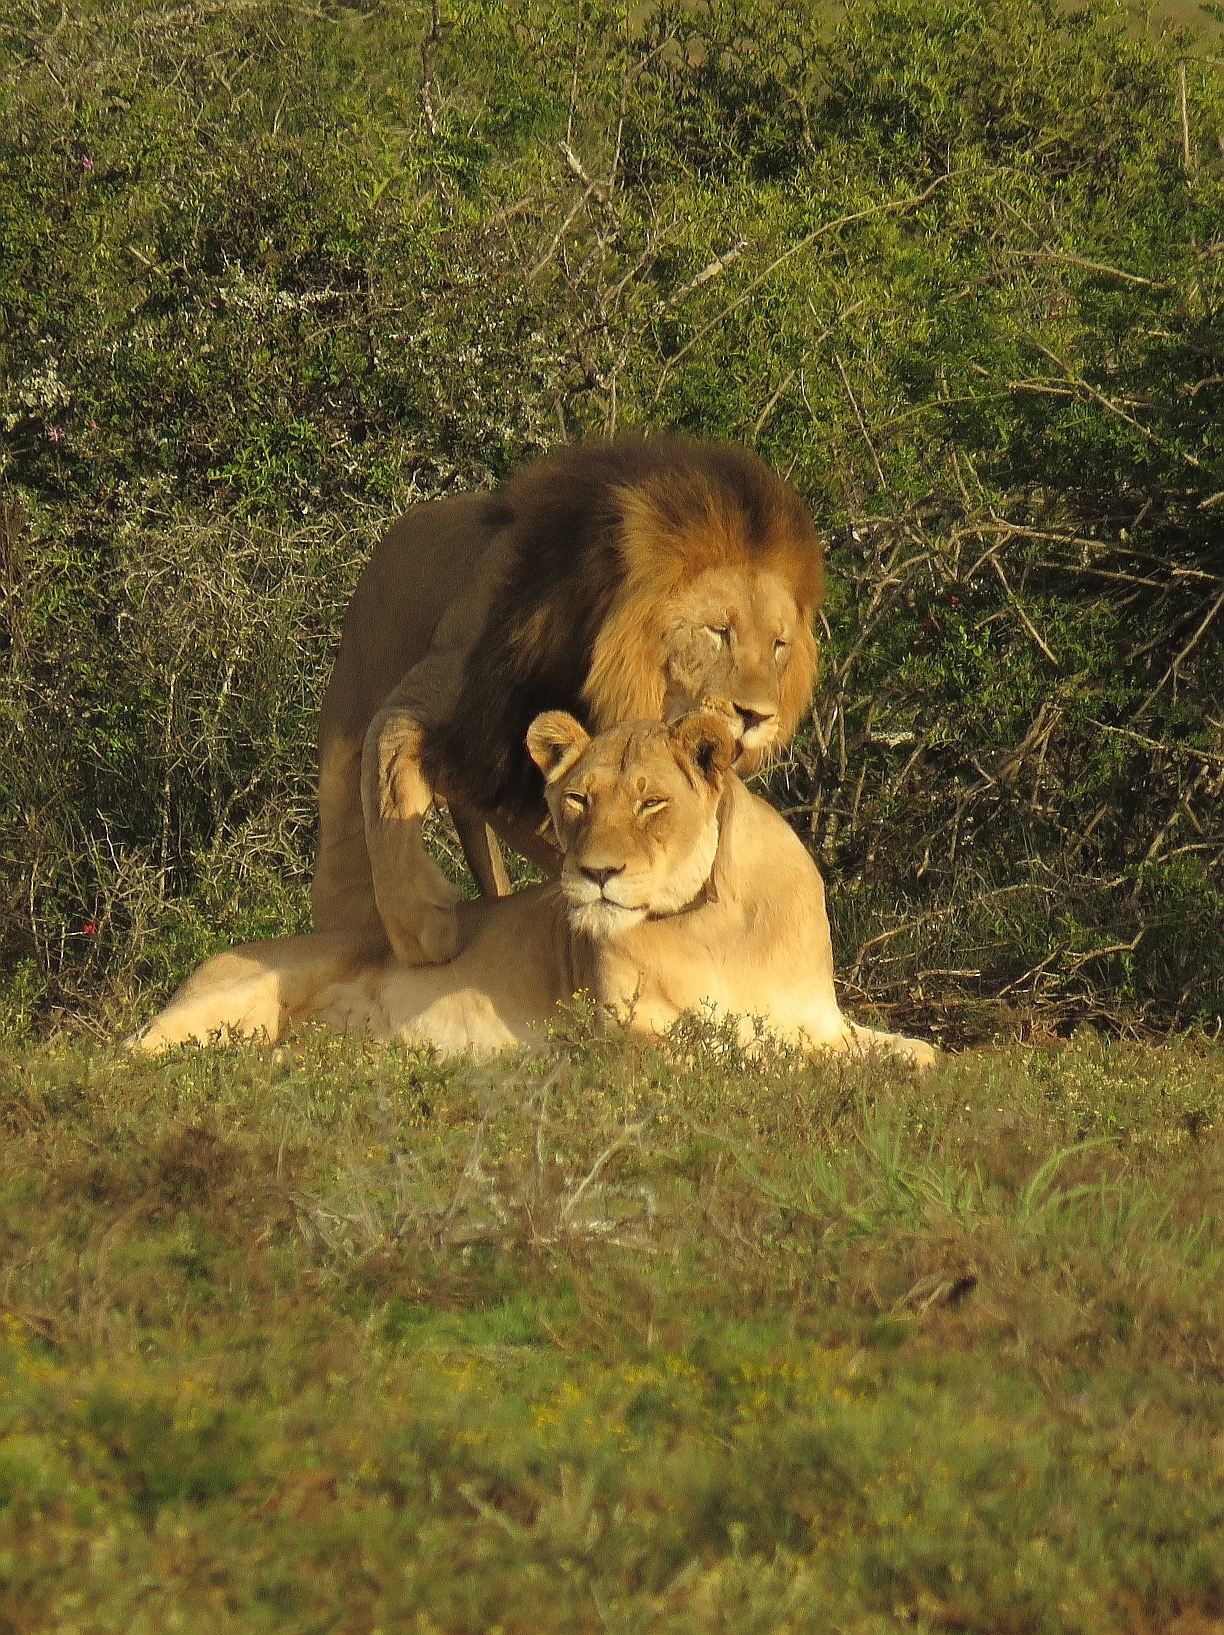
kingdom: Animalia
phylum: Chordata
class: Mammalia
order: Carnivora
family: Felidae
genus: Panthera
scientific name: Panthera leo
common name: Lion
